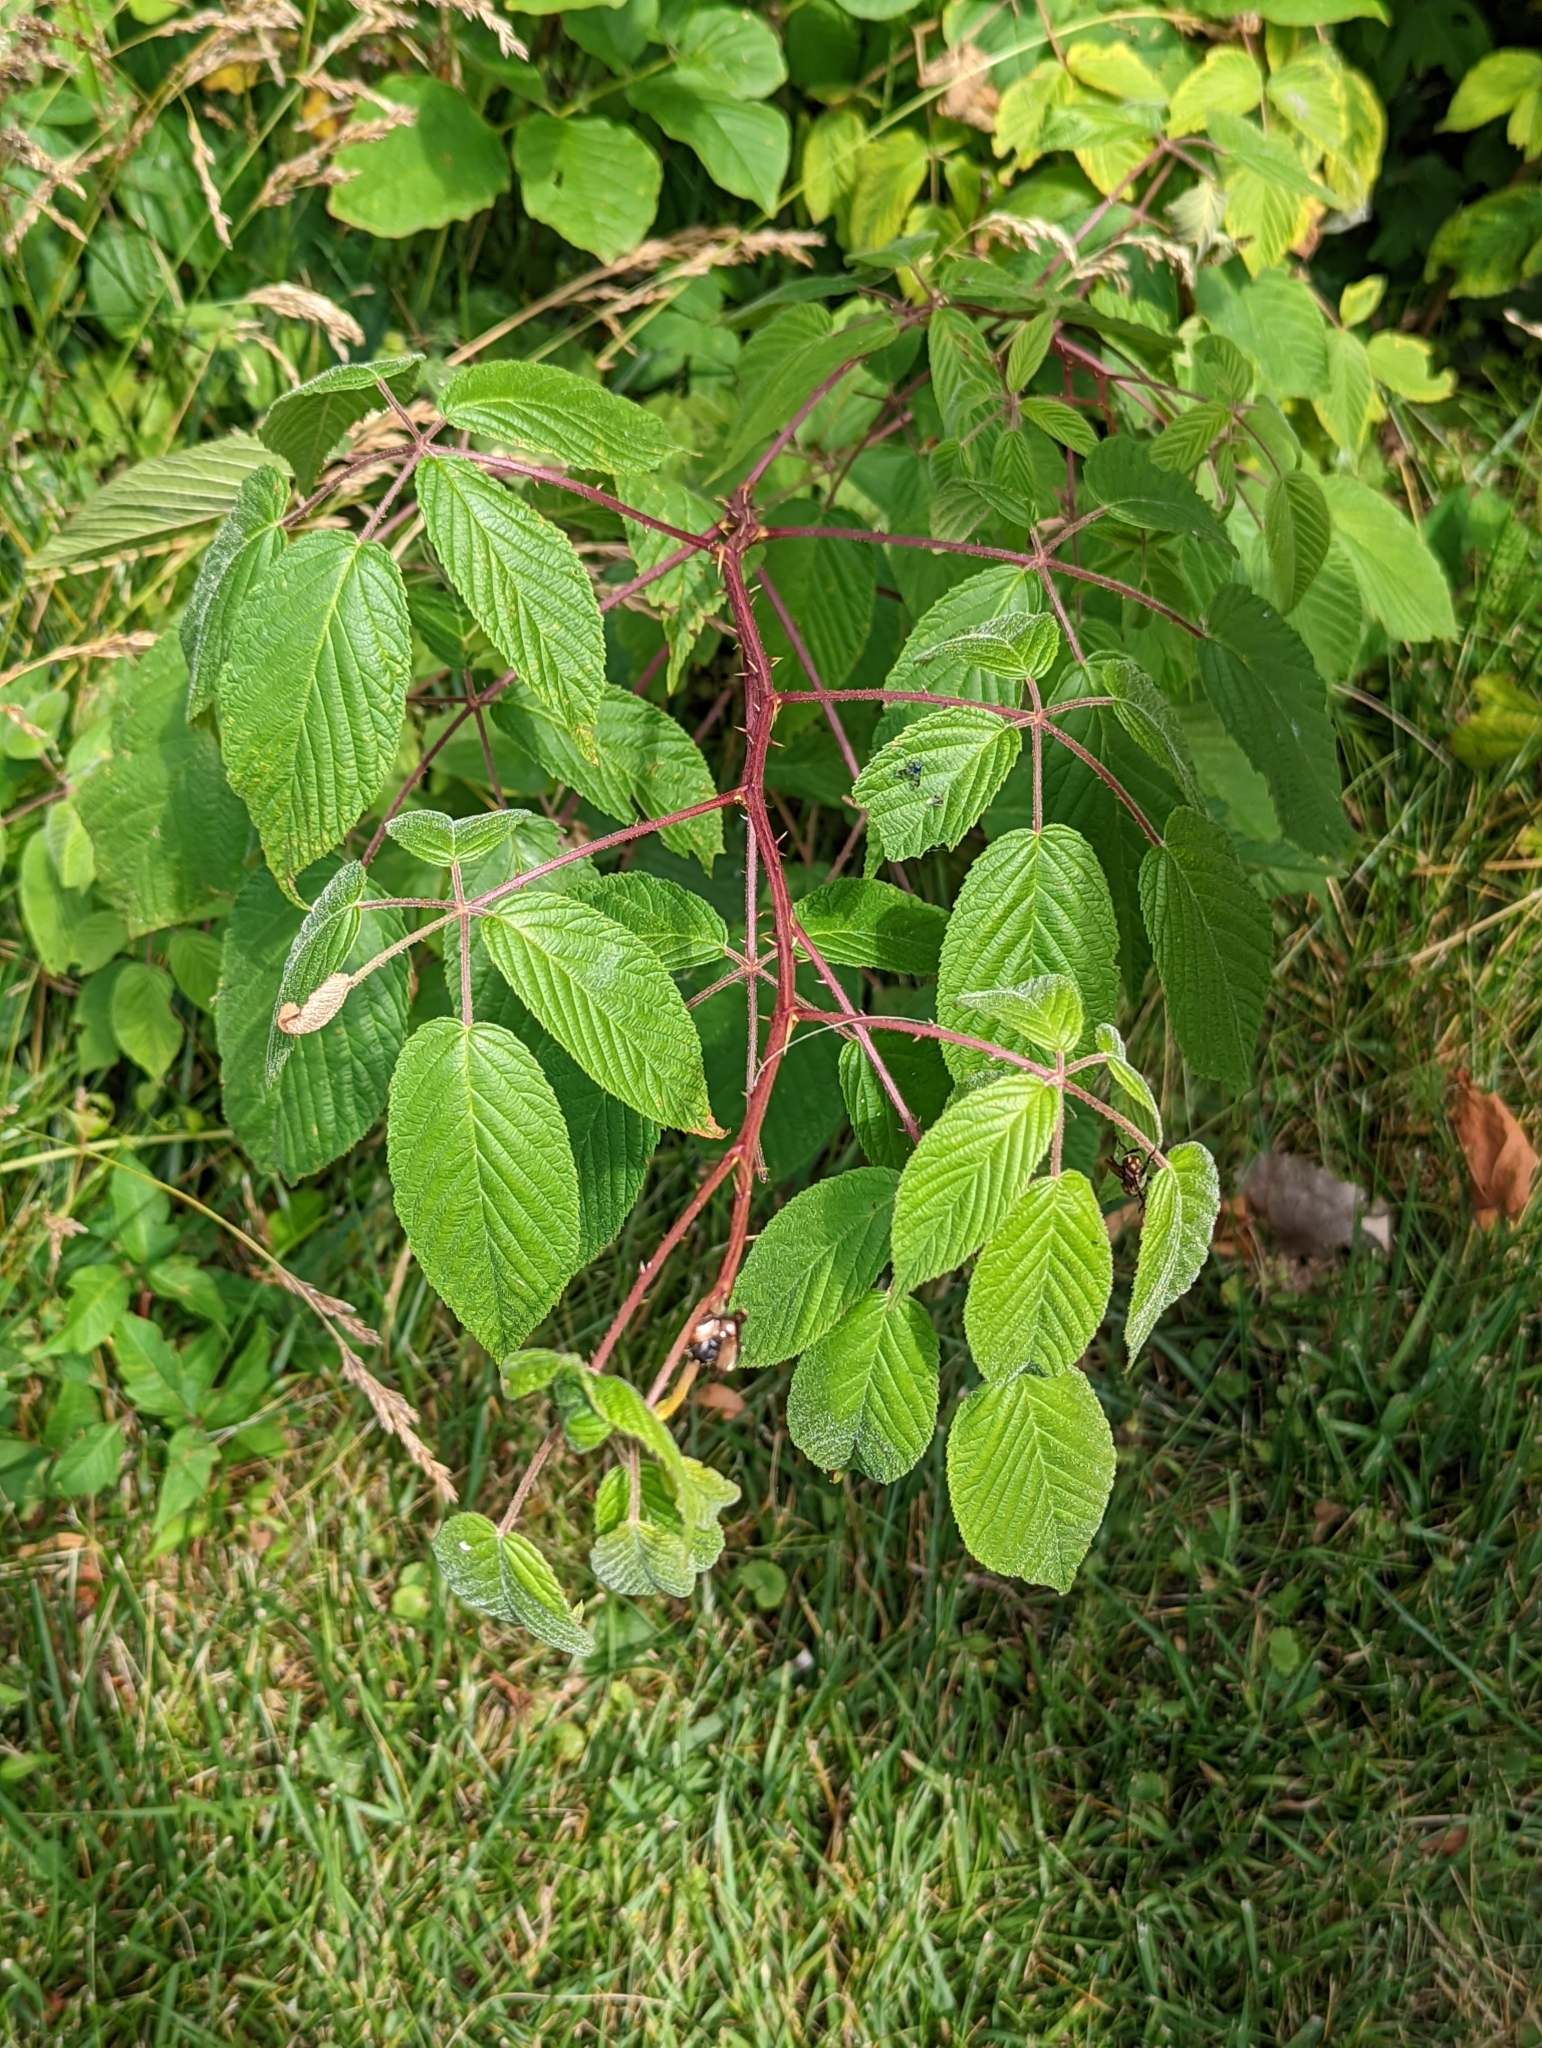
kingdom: Plantae
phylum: Tracheophyta
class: Magnoliopsida
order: Rosales
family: Rosaceae
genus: Rubus
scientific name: Rubus allegheniensis
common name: Allegheny blackberry
